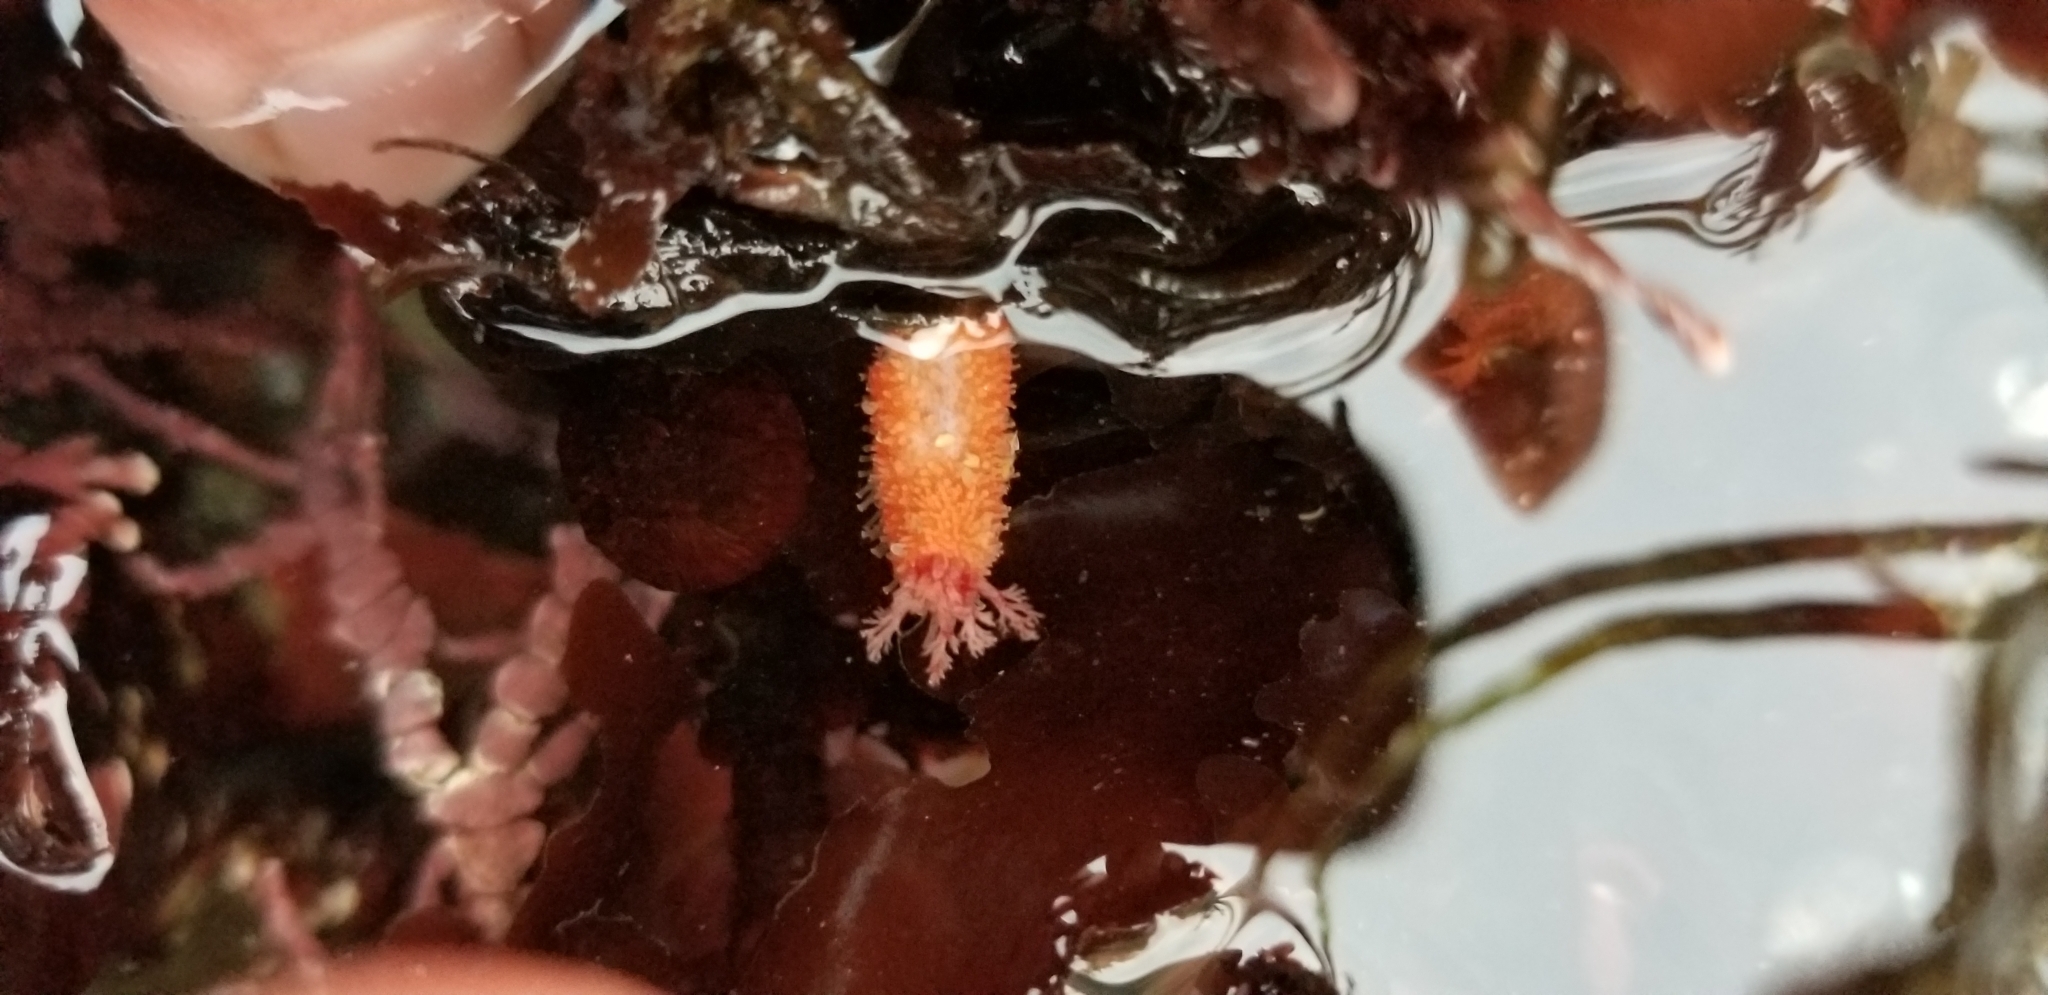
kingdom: Animalia
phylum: Echinodermata
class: Holothuroidea
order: Dendrochirotida
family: Psolidae
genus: Lissothuria
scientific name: Lissothuria nutriens
